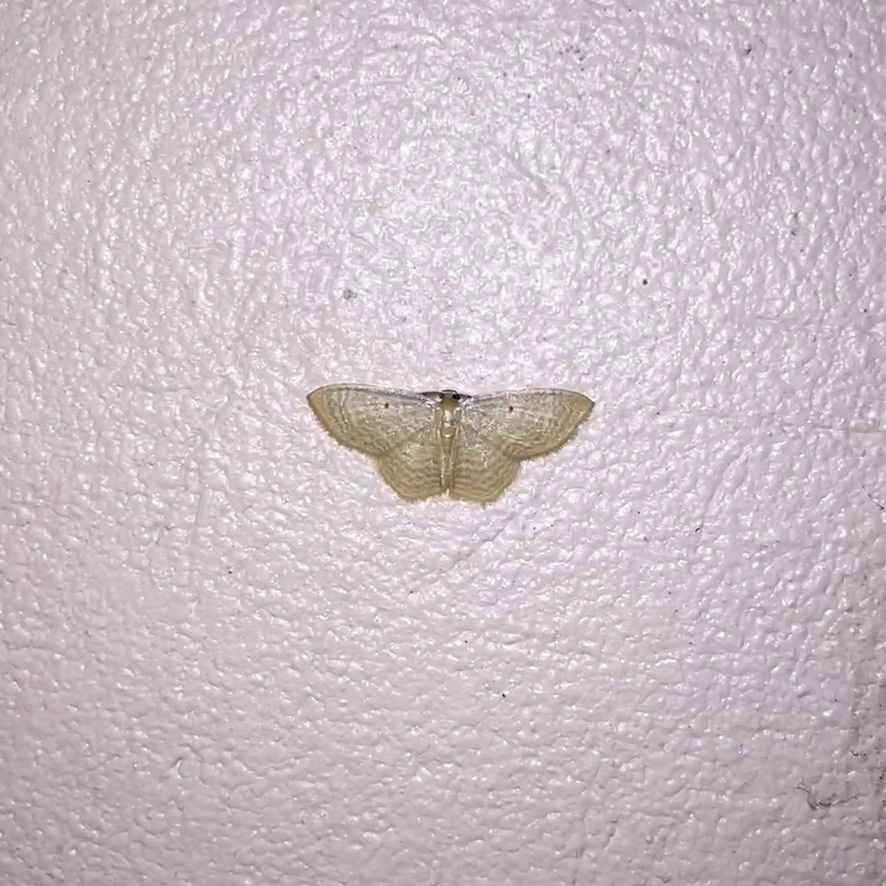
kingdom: Animalia
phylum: Arthropoda
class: Insecta
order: Lepidoptera
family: Geometridae
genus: Eois
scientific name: Eois marcearia
